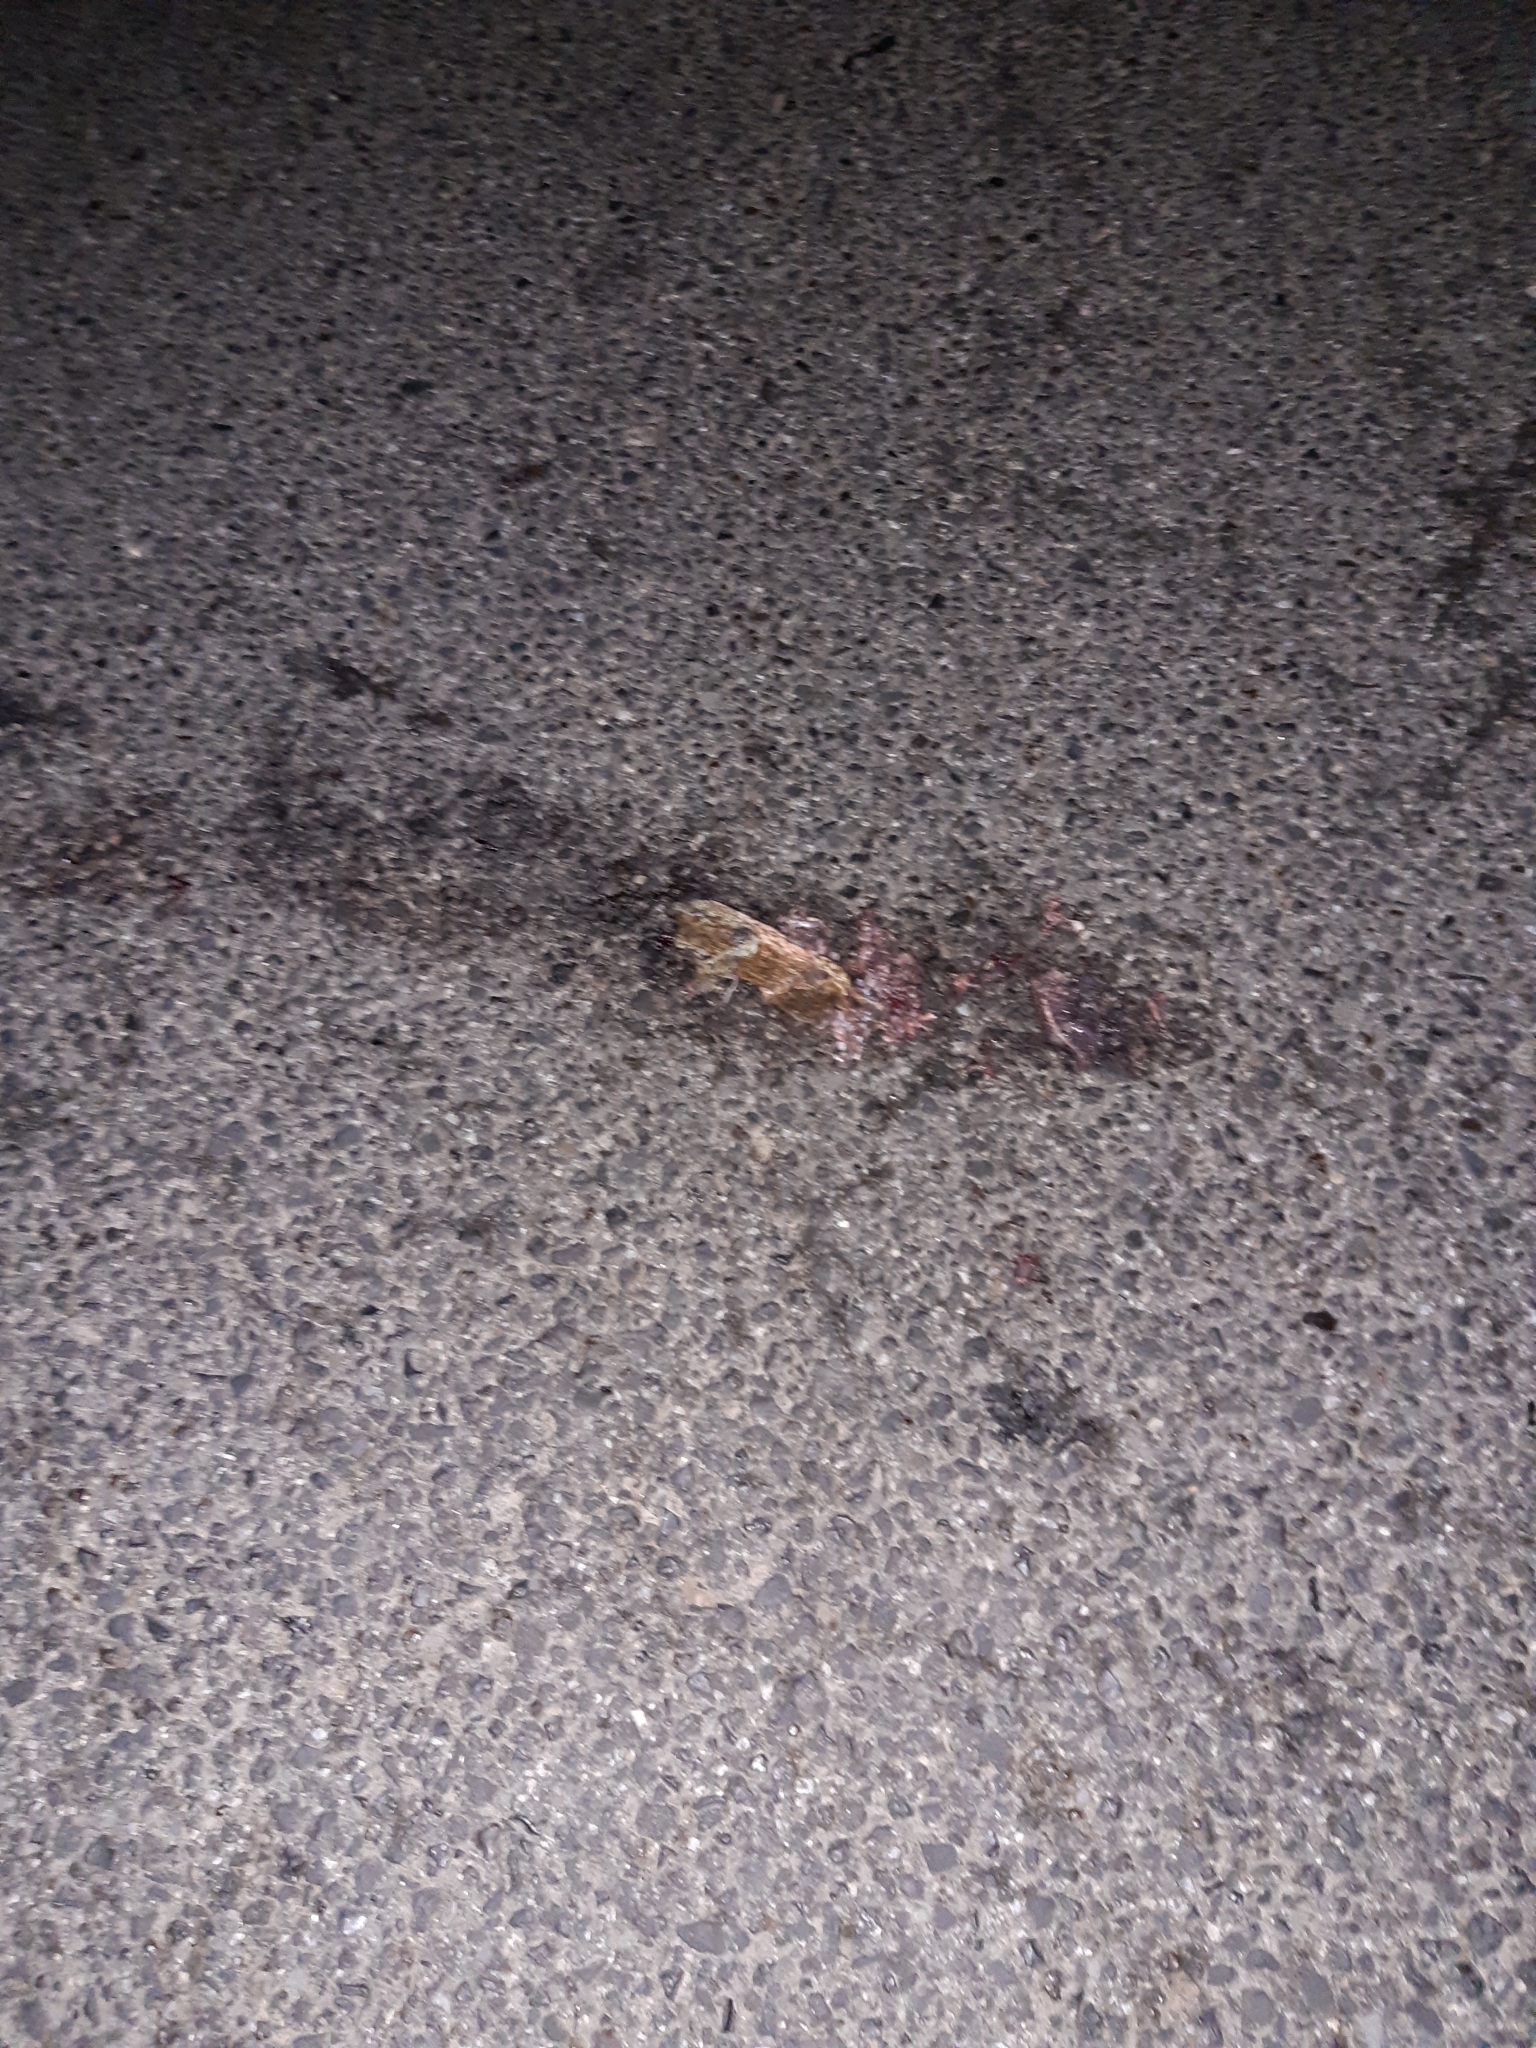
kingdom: Animalia
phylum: Chordata
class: Amphibia
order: Anura
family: Bufonidae
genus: Bufo
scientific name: Bufo bufo
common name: Common toad
